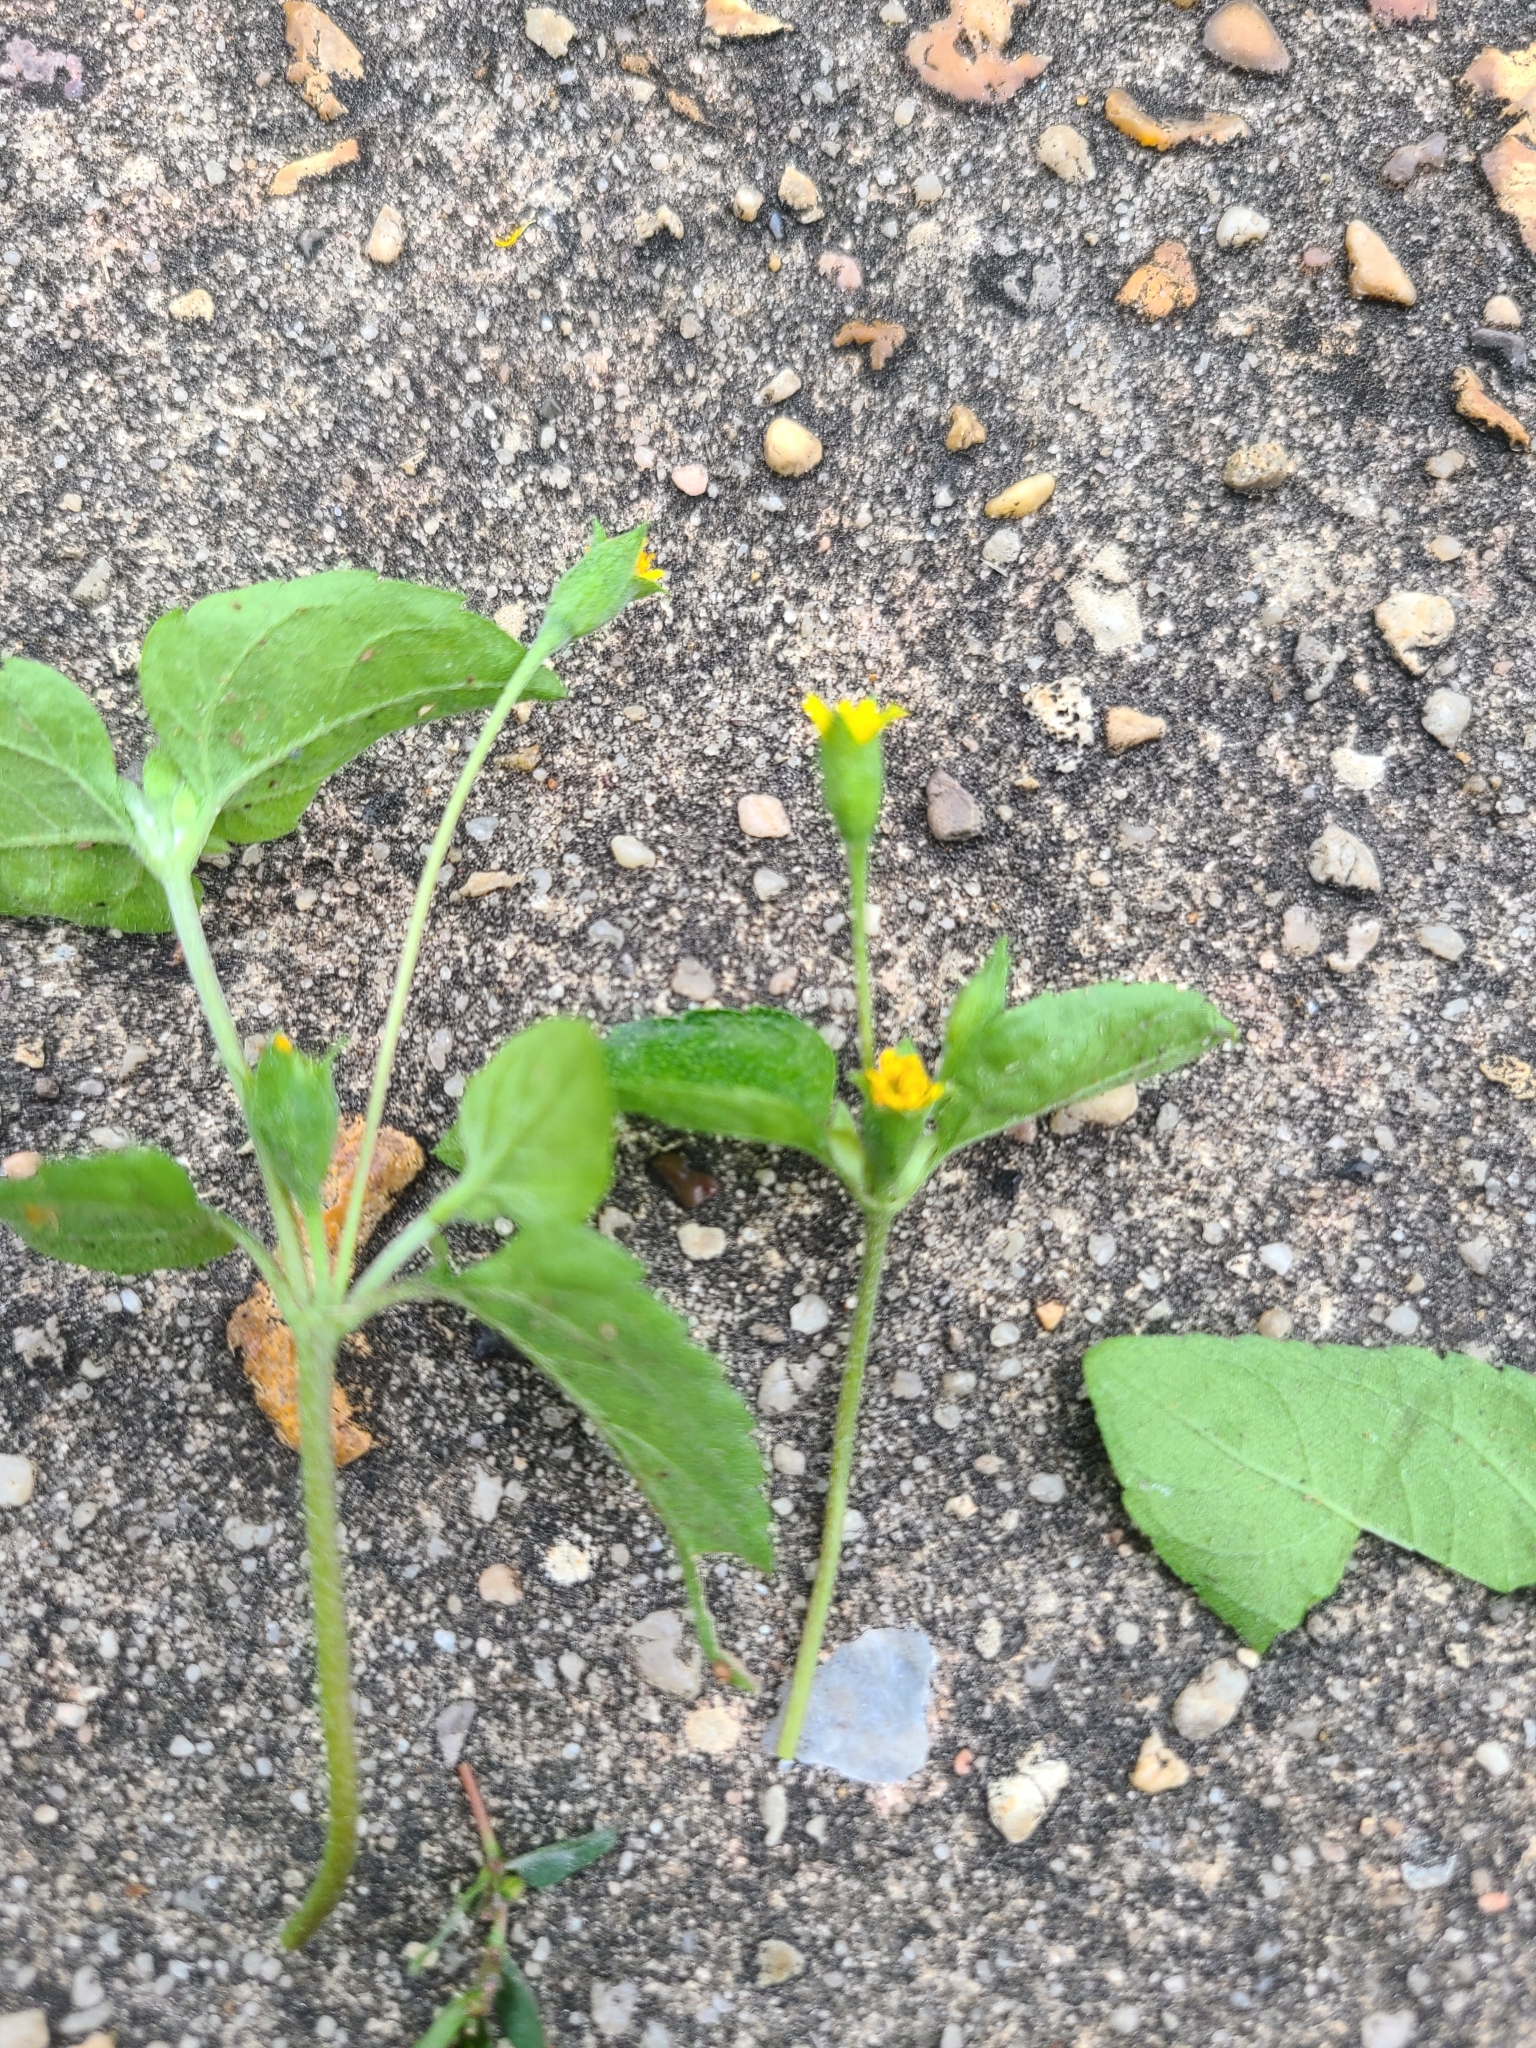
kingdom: Plantae
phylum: Tracheophyta
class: Magnoliopsida
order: Asterales
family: Asteraceae
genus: Calyptocarpus
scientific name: Calyptocarpus vialis
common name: Straggler daisy
